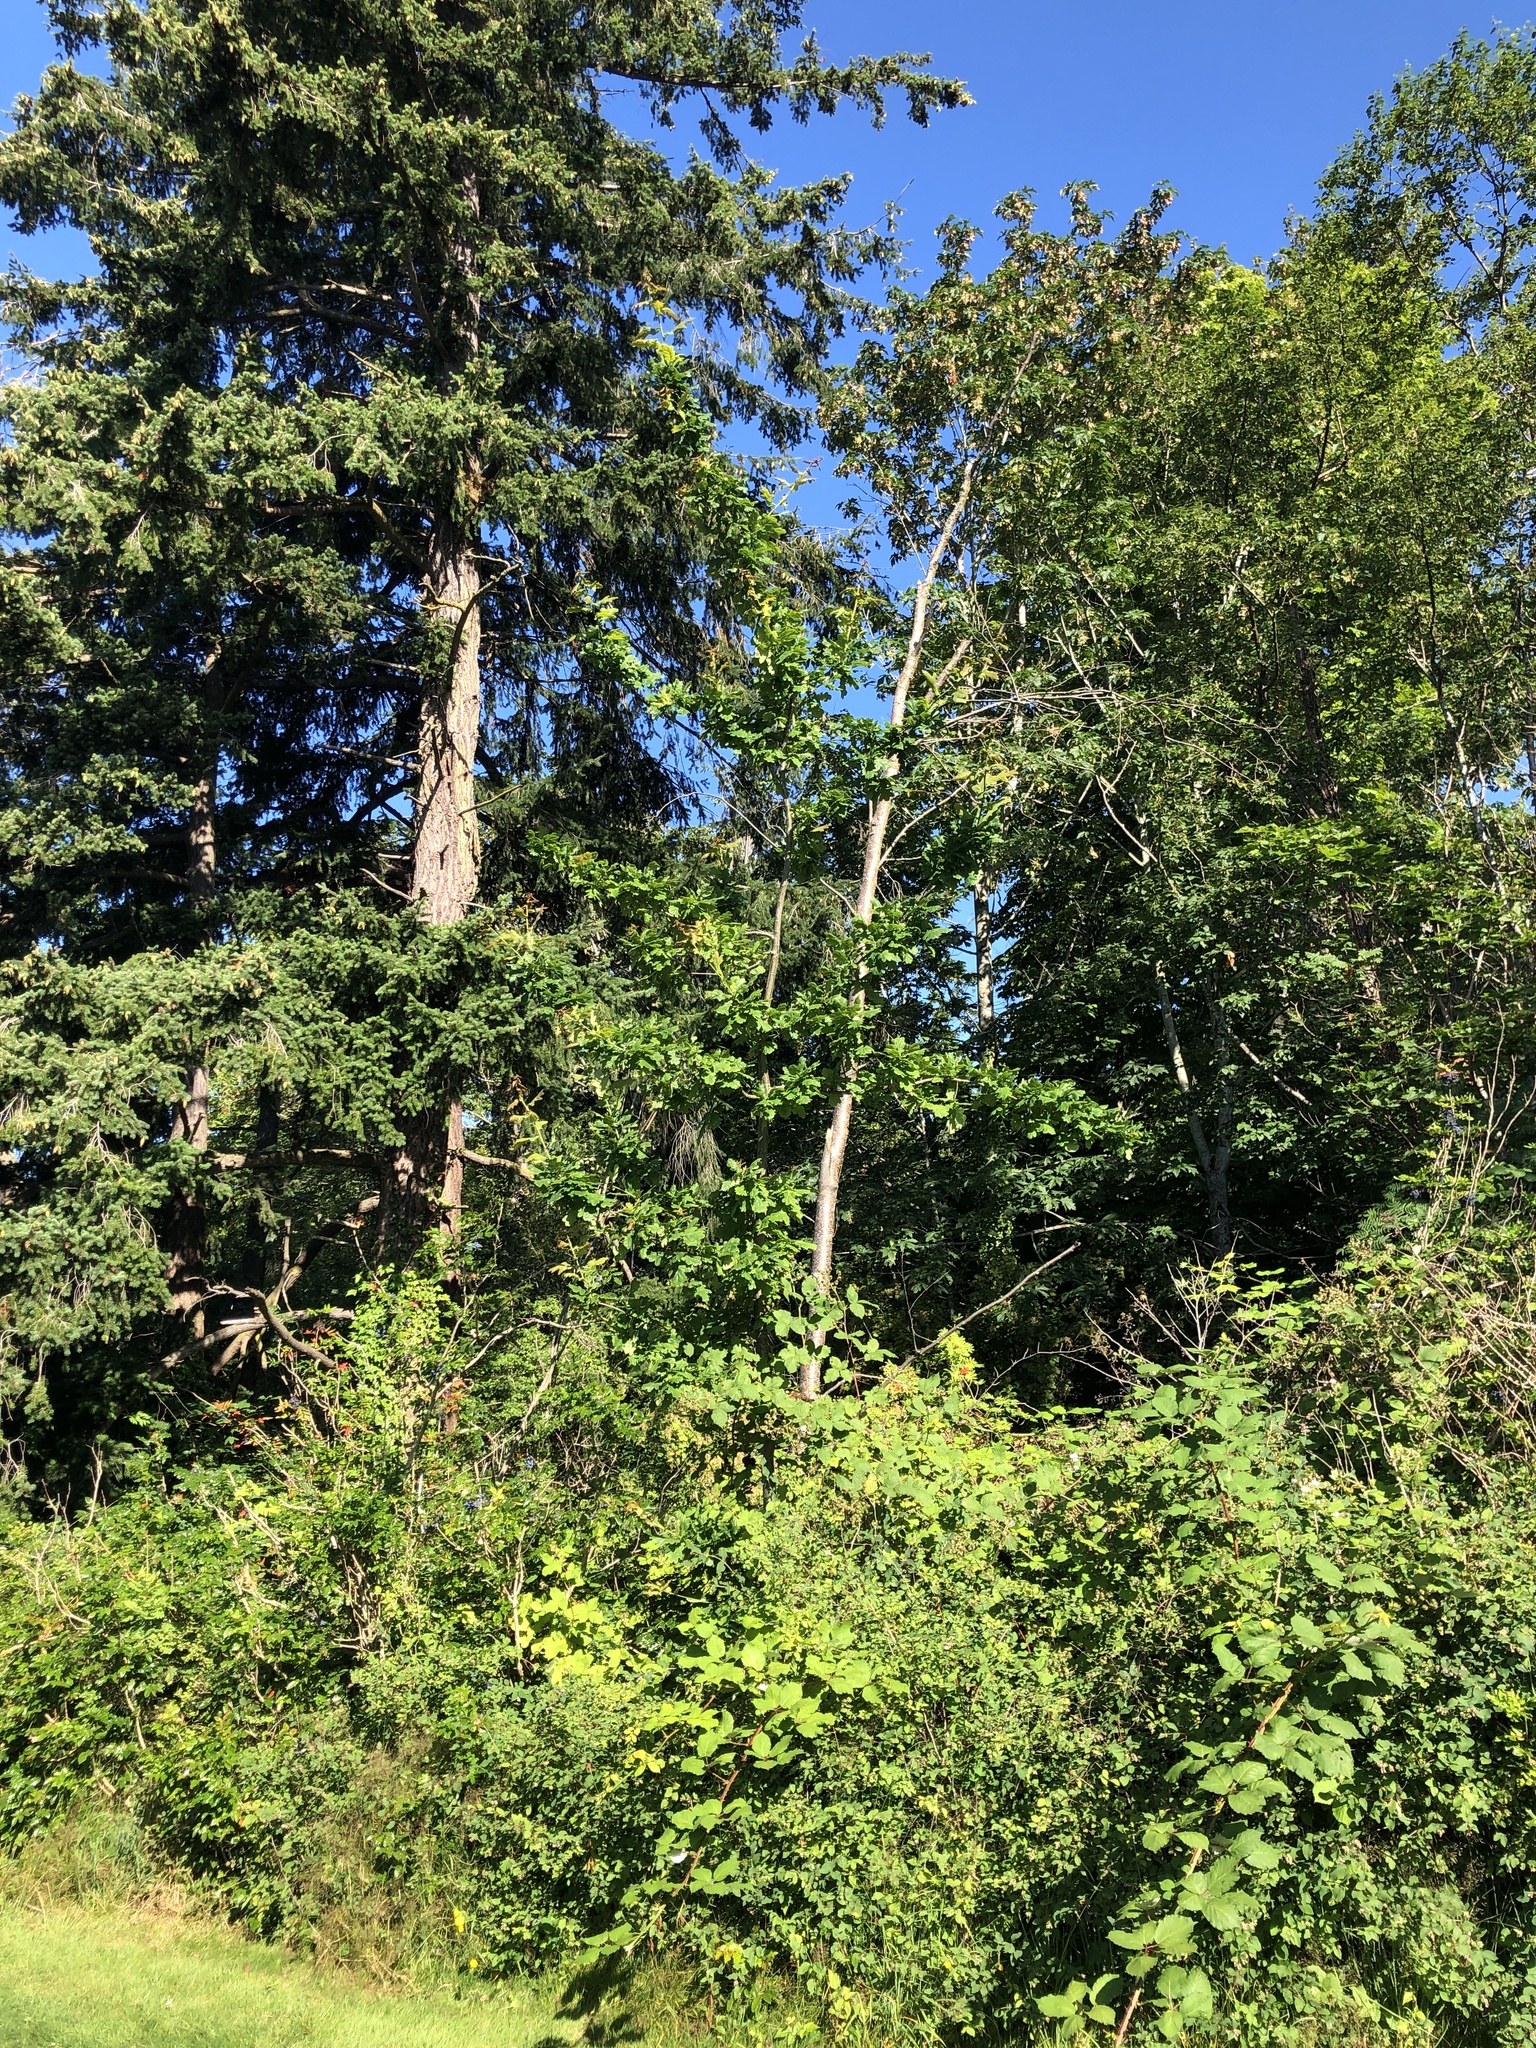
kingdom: Plantae
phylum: Tracheophyta
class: Magnoliopsida
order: Fagales
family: Fagaceae
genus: Quercus
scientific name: Quercus robur
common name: Pedunculate oak
